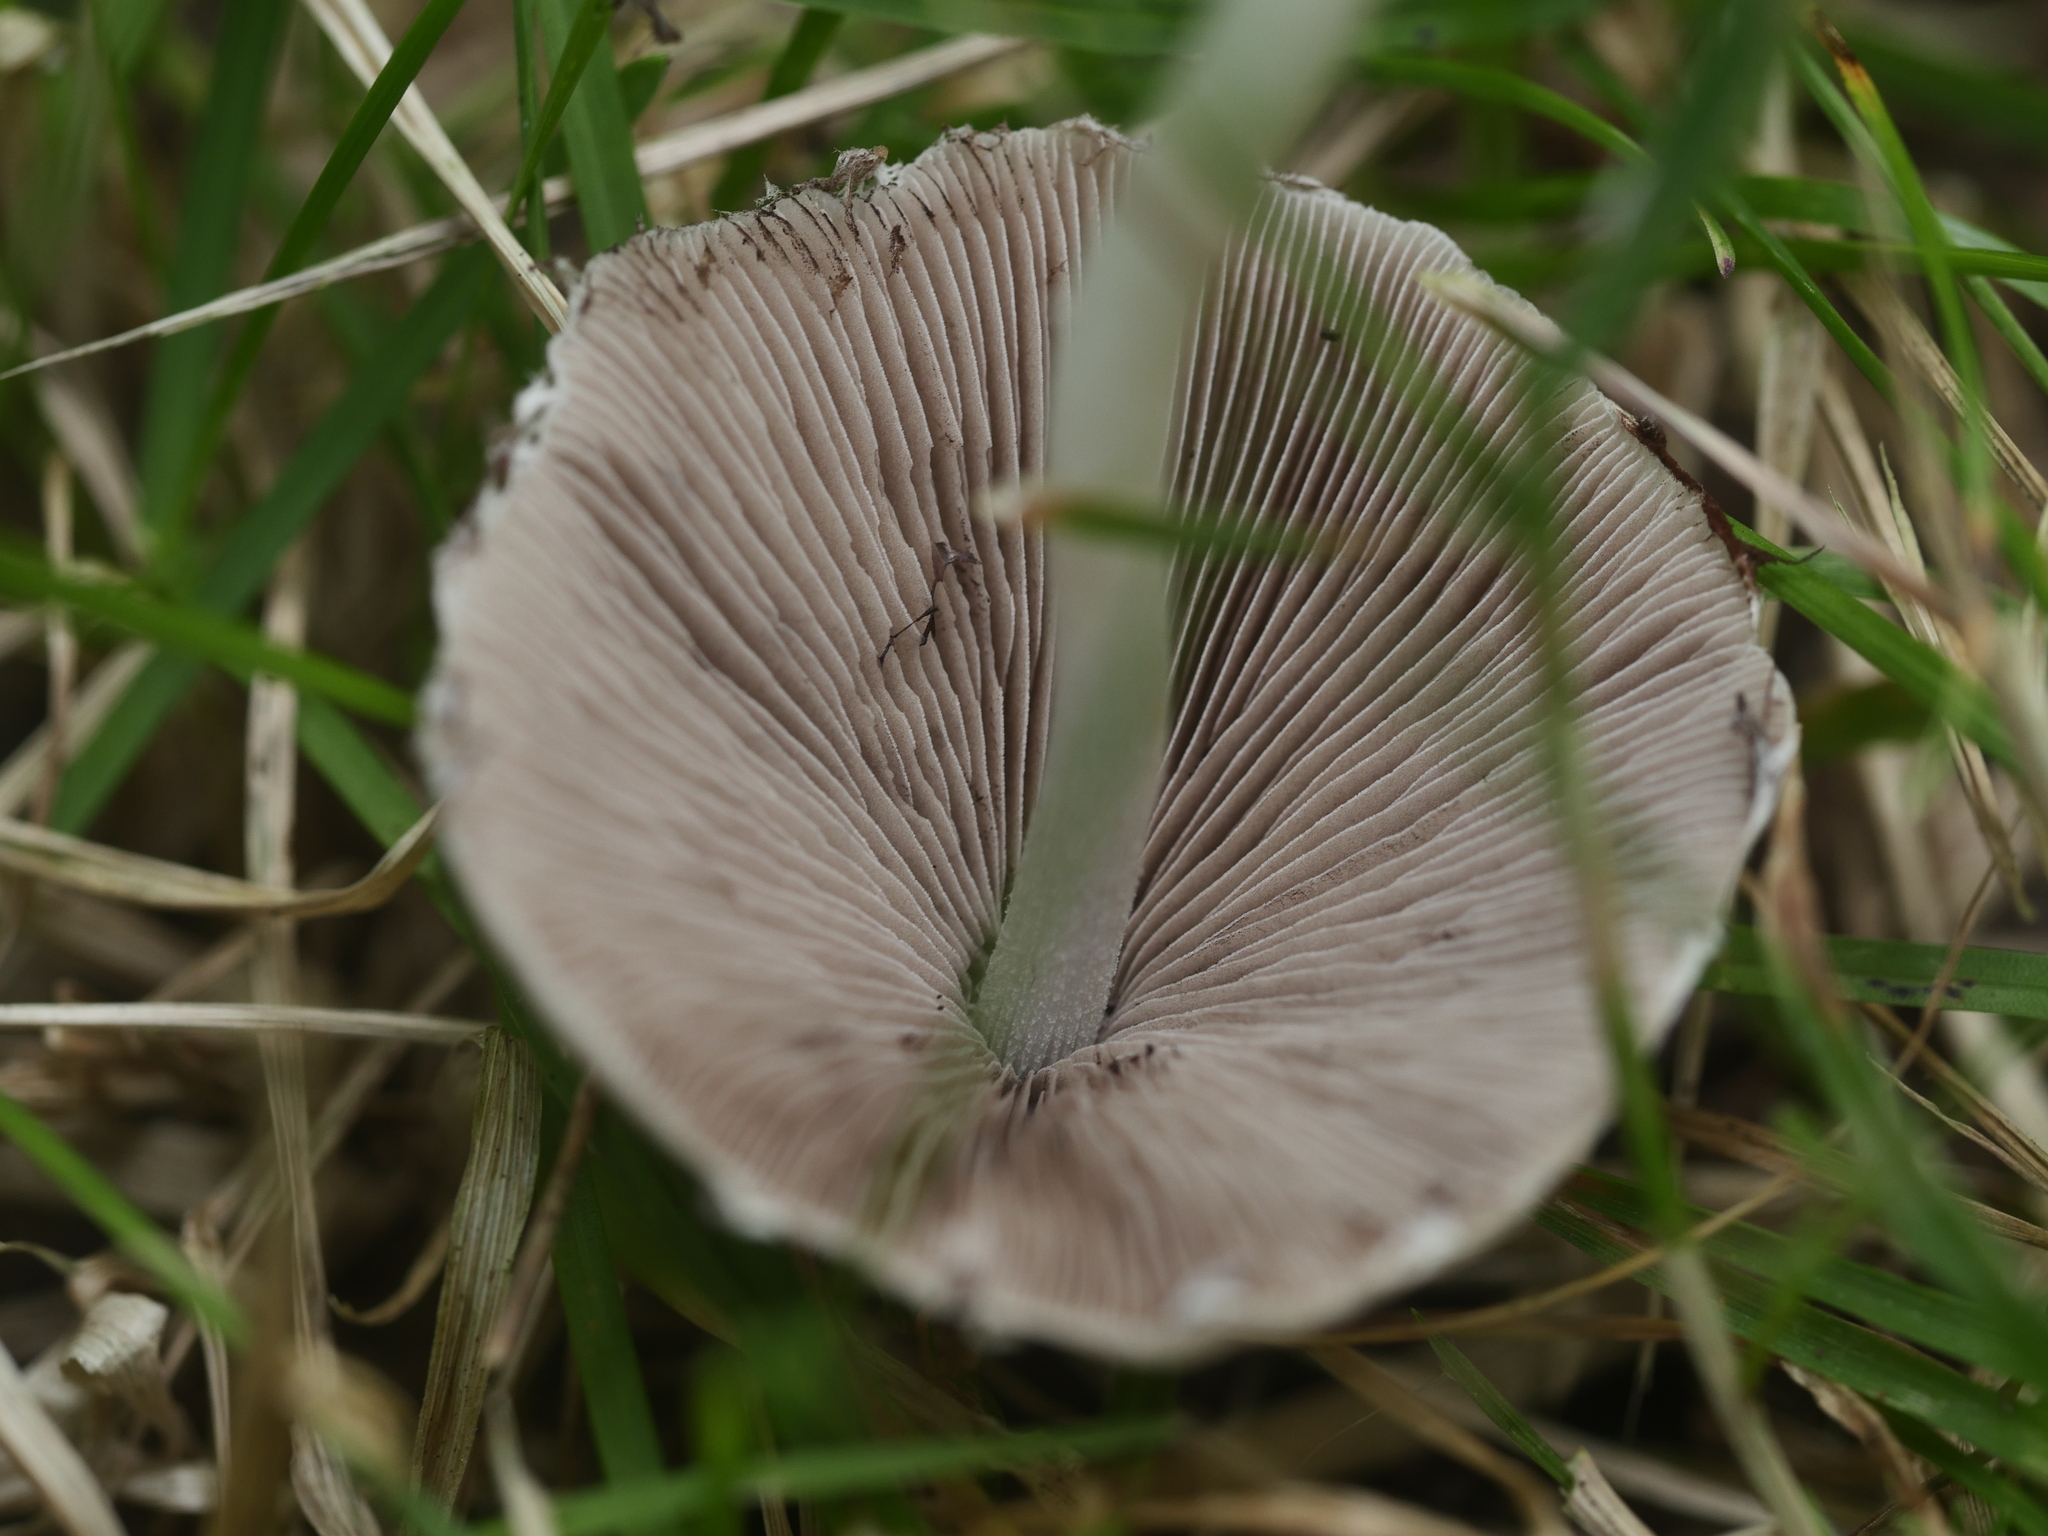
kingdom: Fungi
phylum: Basidiomycota
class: Agaricomycetes
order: Agaricales
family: Psathyrellaceae
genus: Candolleomyces
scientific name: Candolleomyces candolleanus
